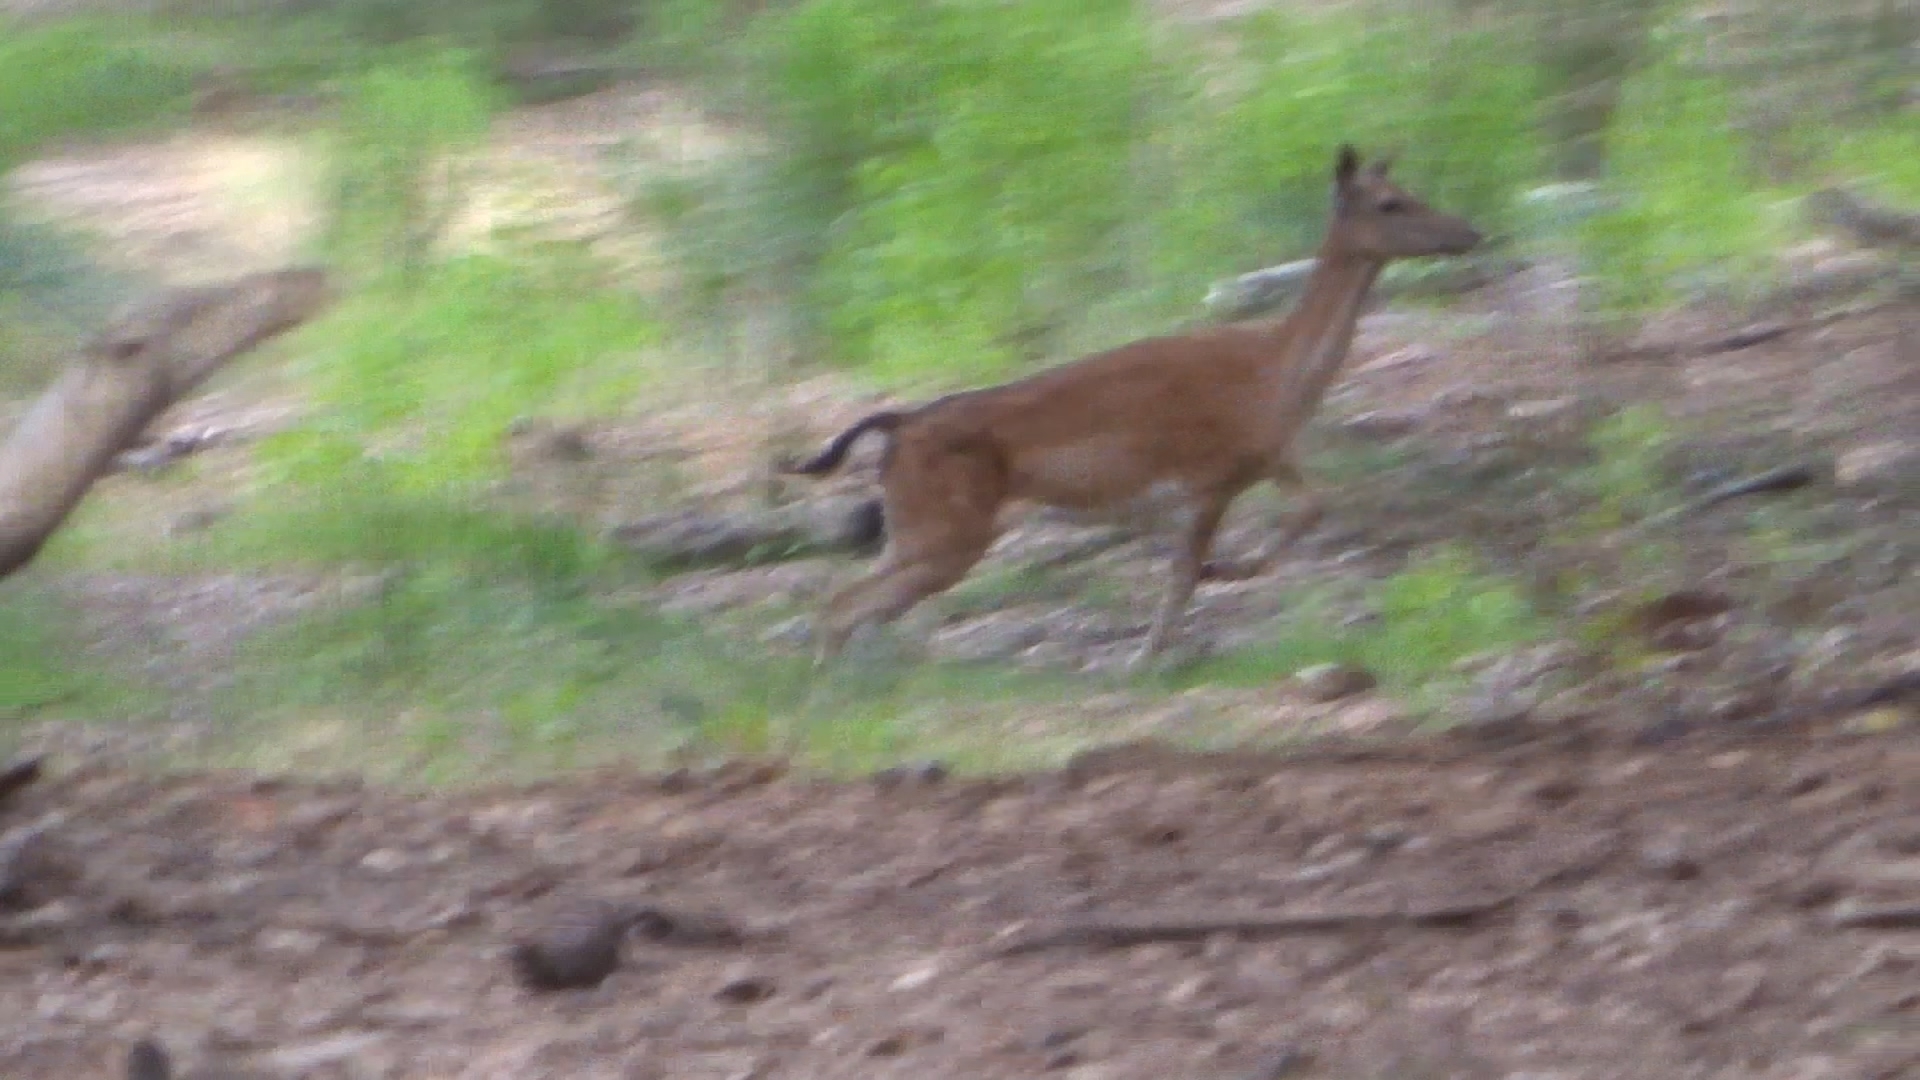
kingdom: Animalia
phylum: Chordata
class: Mammalia
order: Artiodactyla
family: Cervidae
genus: Dama
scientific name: Dama dama
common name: Fallow deer
